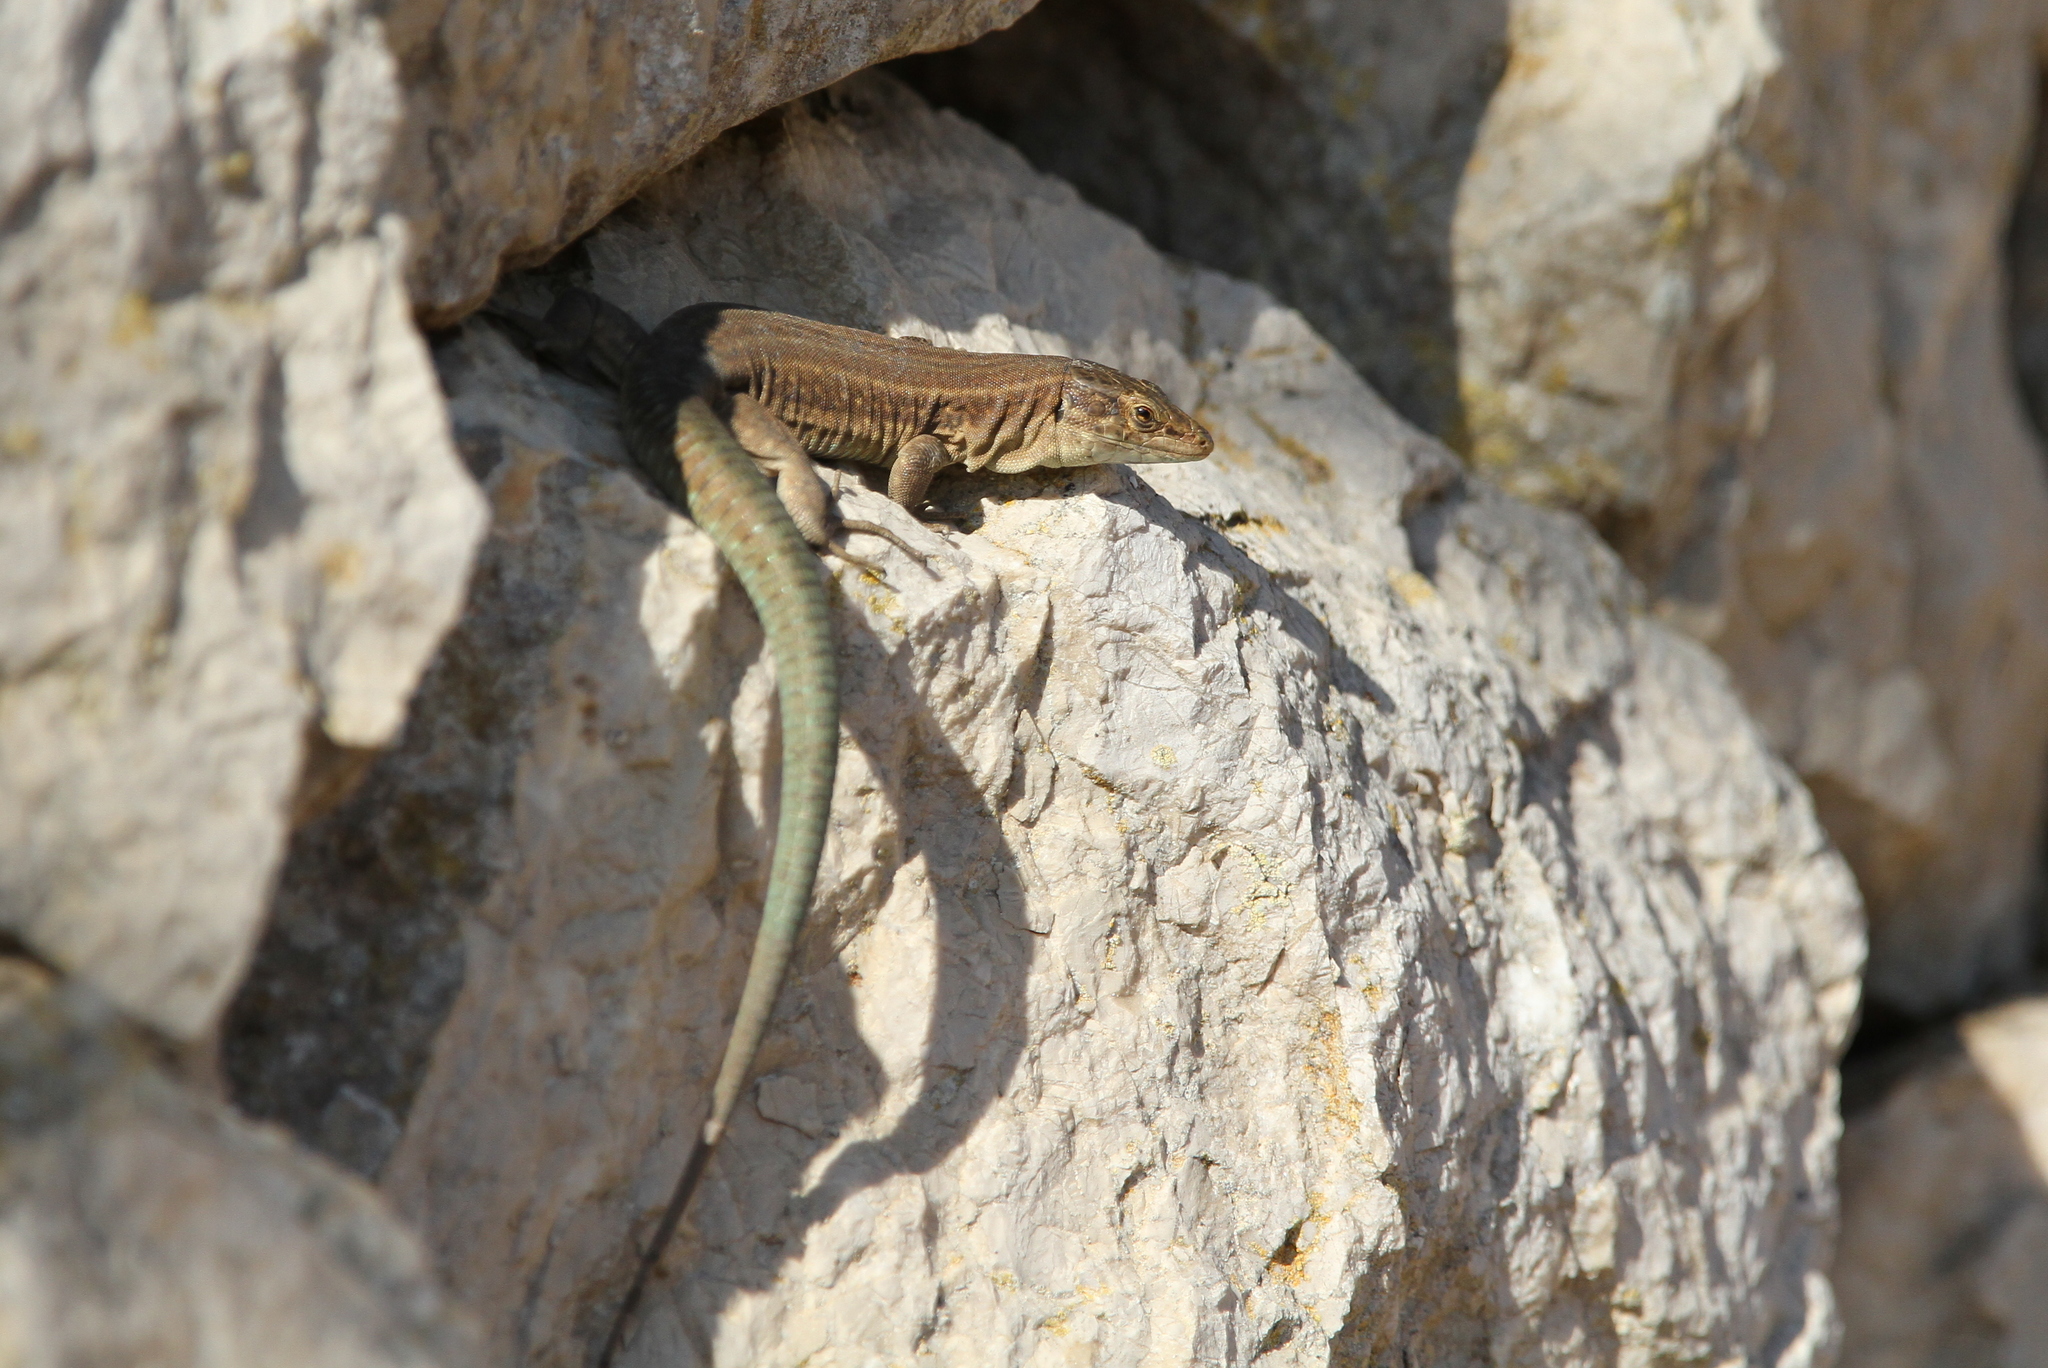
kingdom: Animalia
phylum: Chordata
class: Squamata
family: Lacertidae
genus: Podarcis
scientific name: Podarcis lilfordi
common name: Belearic lizard
